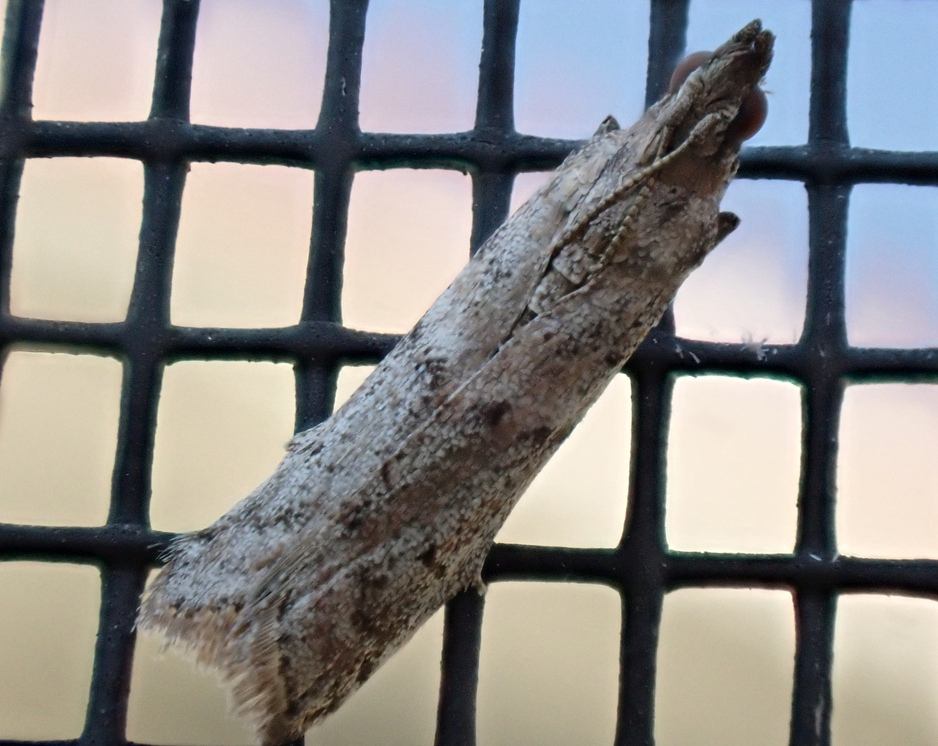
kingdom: Animalia
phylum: Arthropoda
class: Insecta
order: Lepidoptera
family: Pyralidae
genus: Ephestiodes
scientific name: Ephestiodes gilvescentella
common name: Moth
